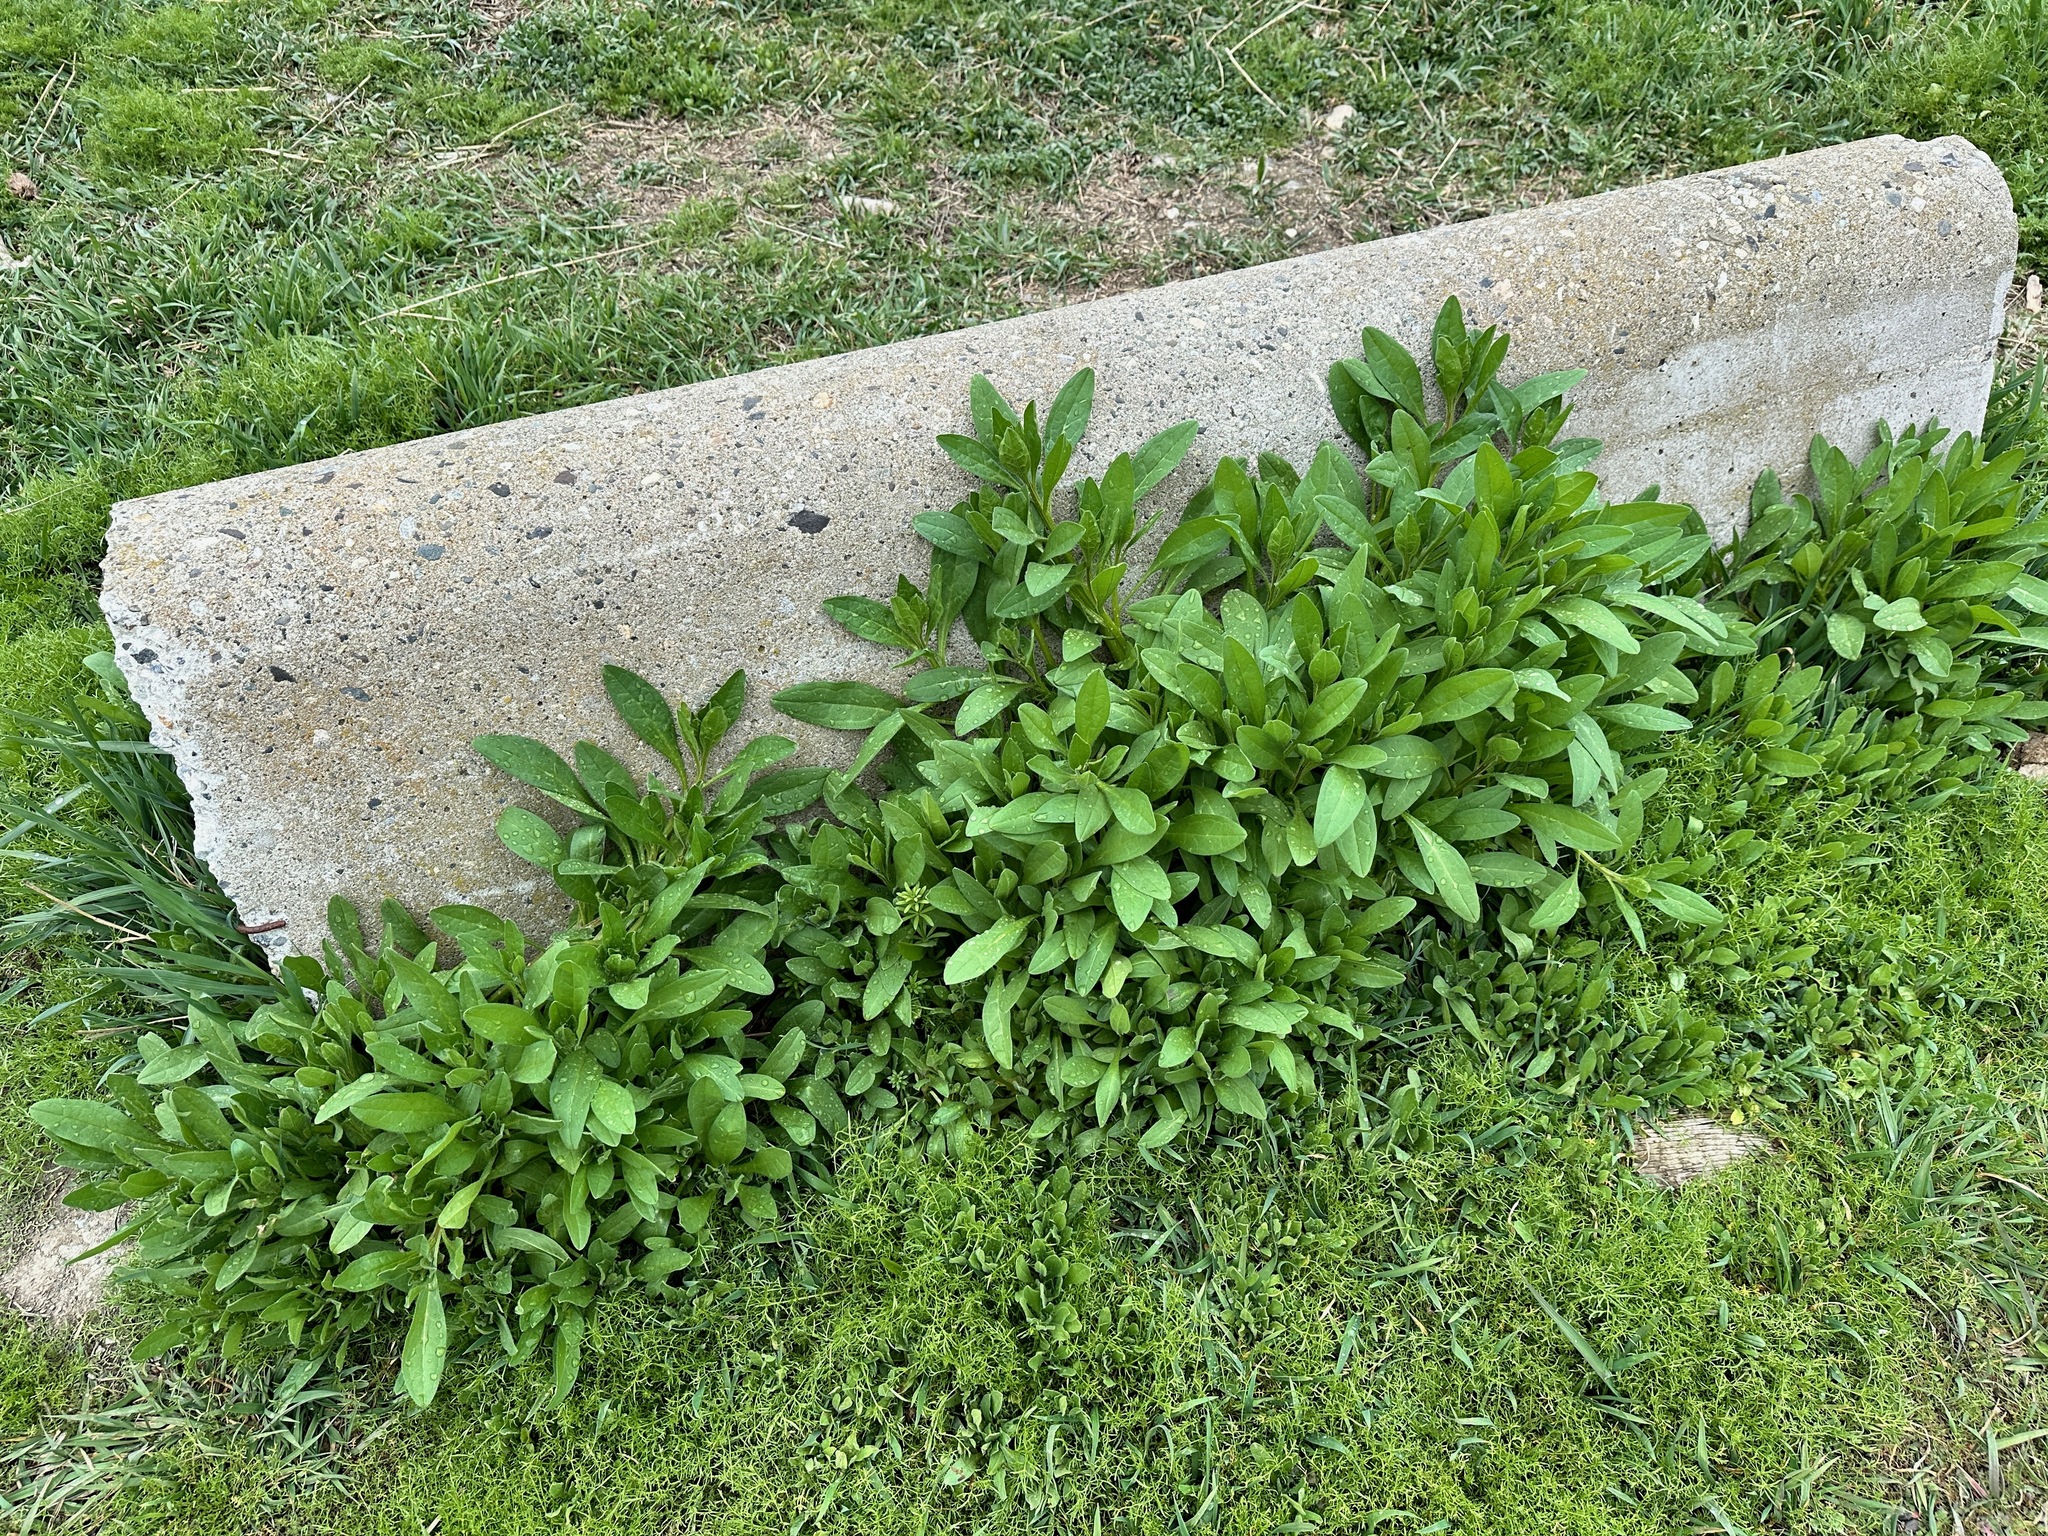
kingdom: Plantae
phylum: Tracheophyta
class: Magnoliopsida
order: Boraginales
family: Boraginaceae
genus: Asperugo
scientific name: Asperugo procumbens
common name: Madwort
